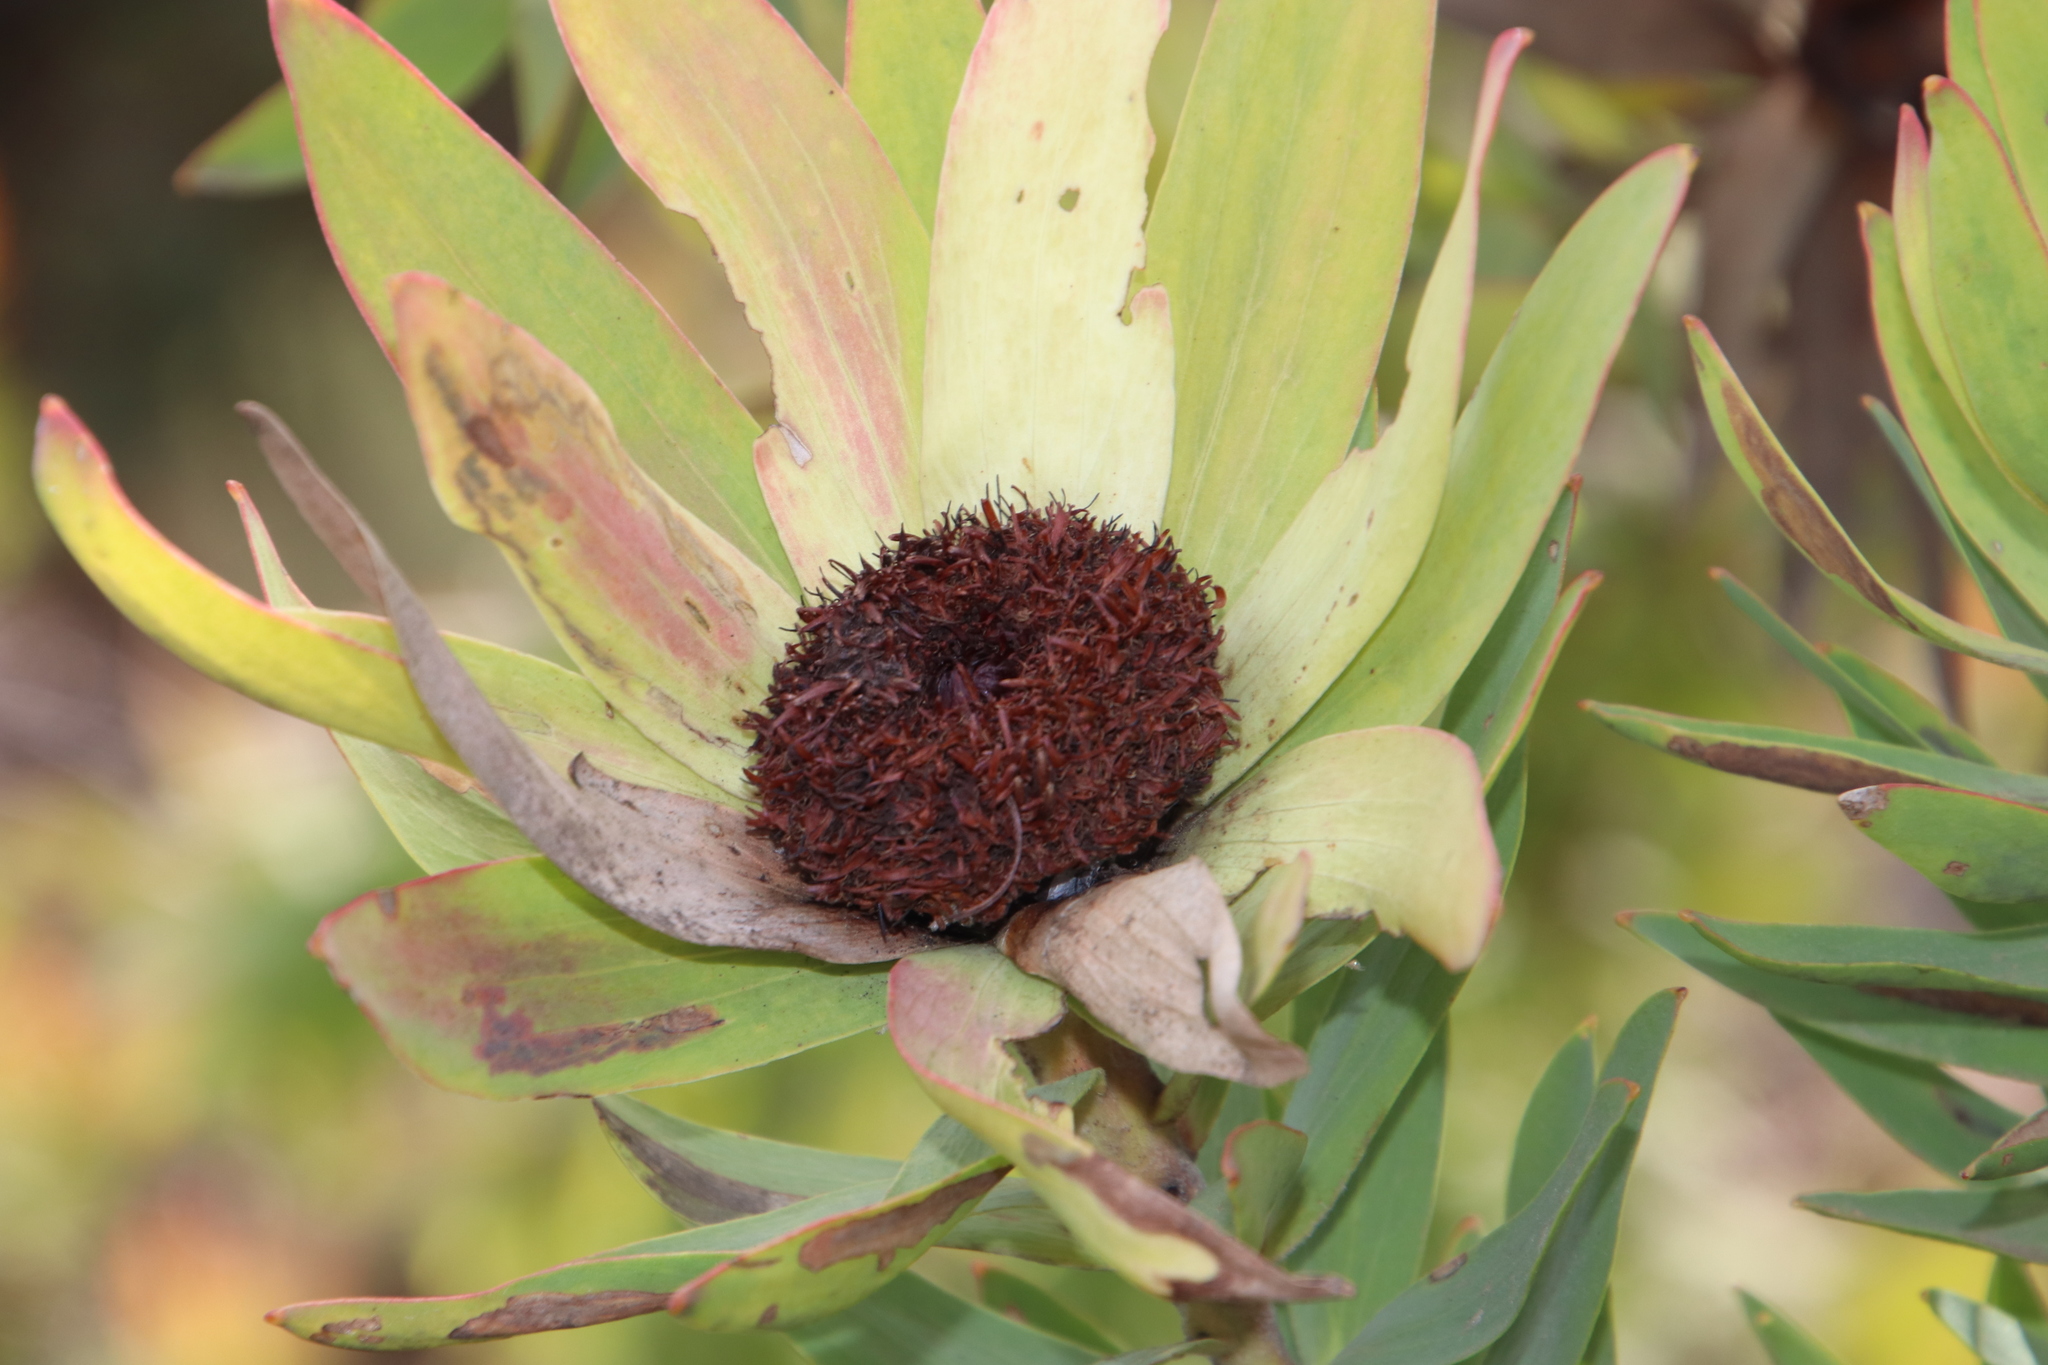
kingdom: Plantae
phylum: Tracheophyta
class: Magnoliopsida
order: Proteales
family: Proteaceae
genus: Leucadendron
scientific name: Leucadendron sessile
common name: Western sunbush
